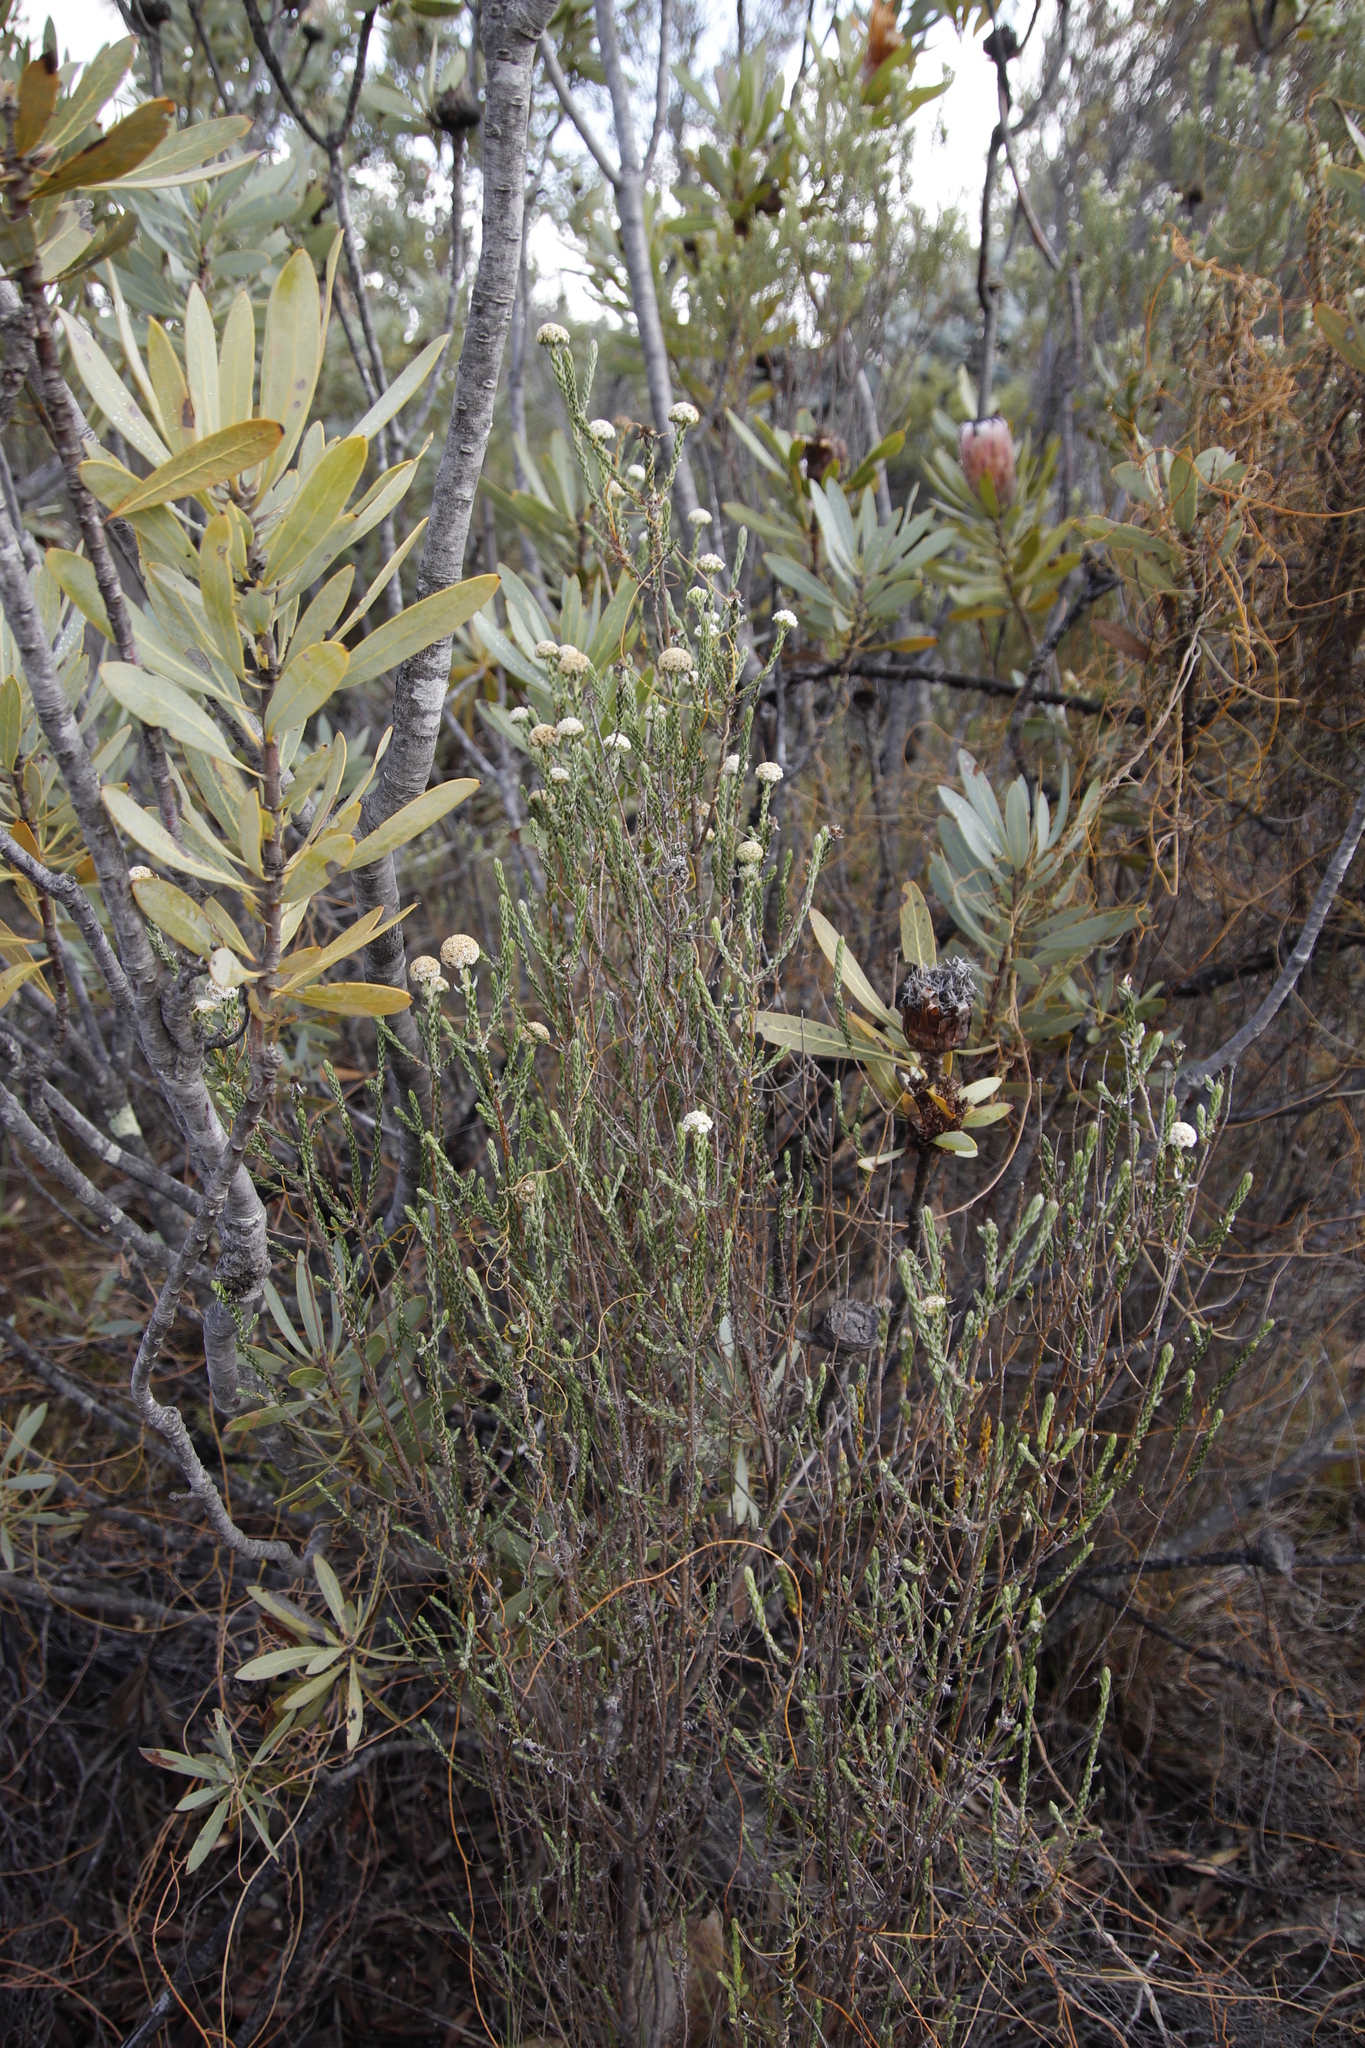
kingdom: Plantae
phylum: Tracheophyta
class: Magnoliopsida
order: Asterales
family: Asteraceae
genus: Stoebe
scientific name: Stoebe aethiopica
